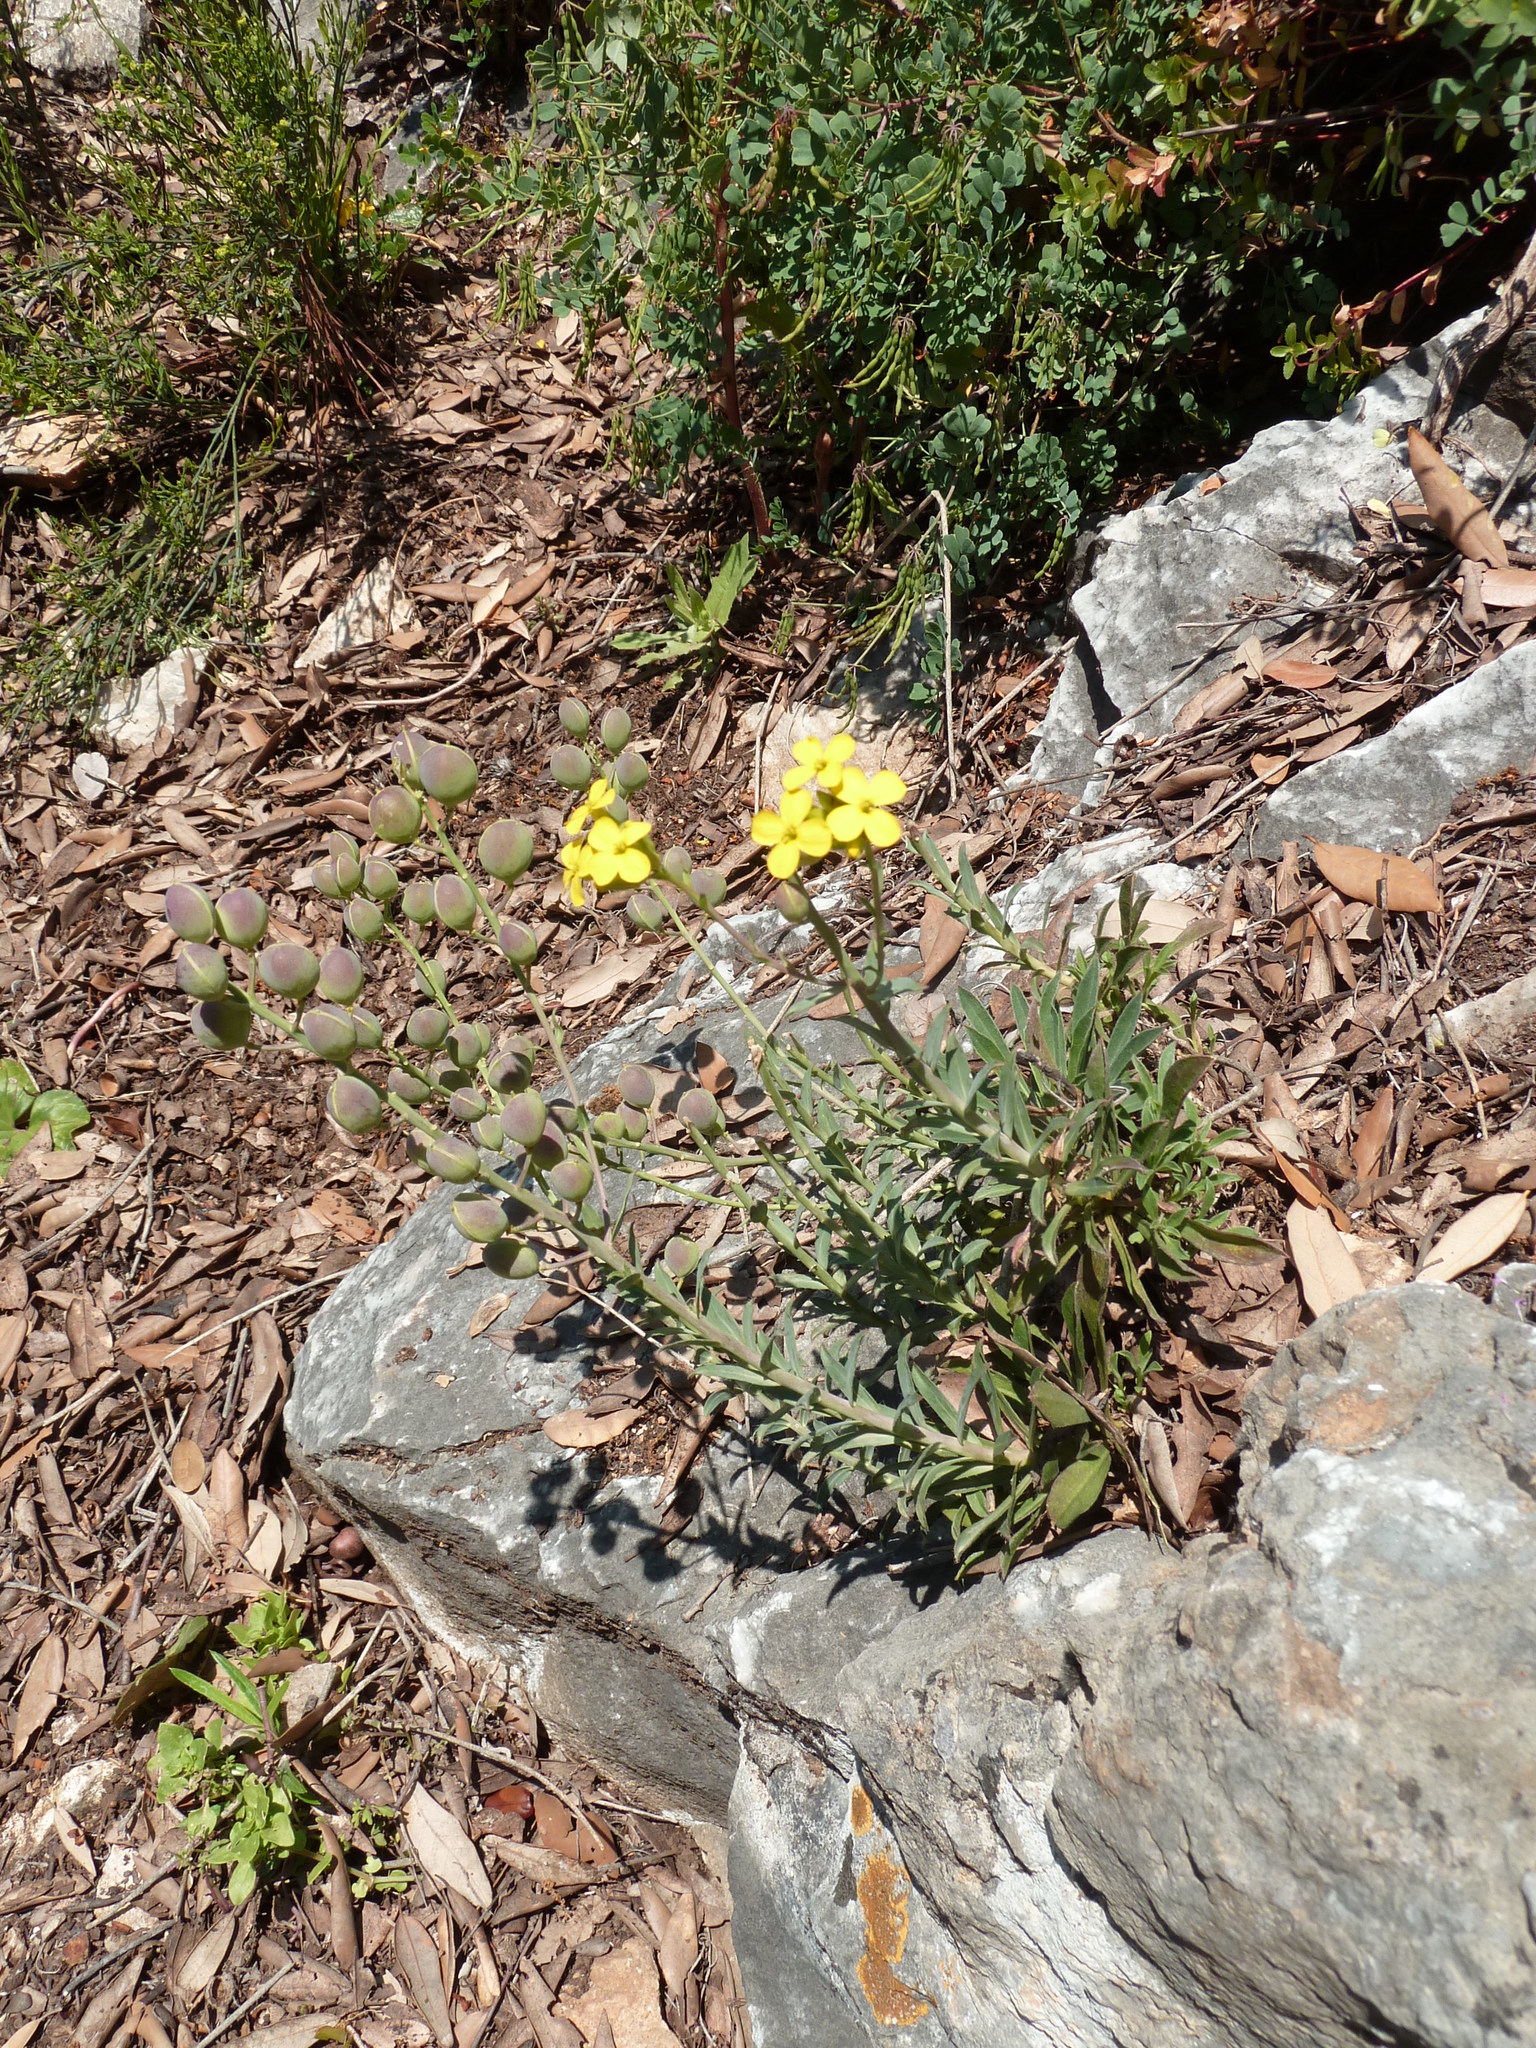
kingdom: Plantae
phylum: Tracheophyta
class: Magnoliopsida
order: Brassicales
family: Brassicaceae
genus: Alyssoides
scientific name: Alyssoides utriculata
